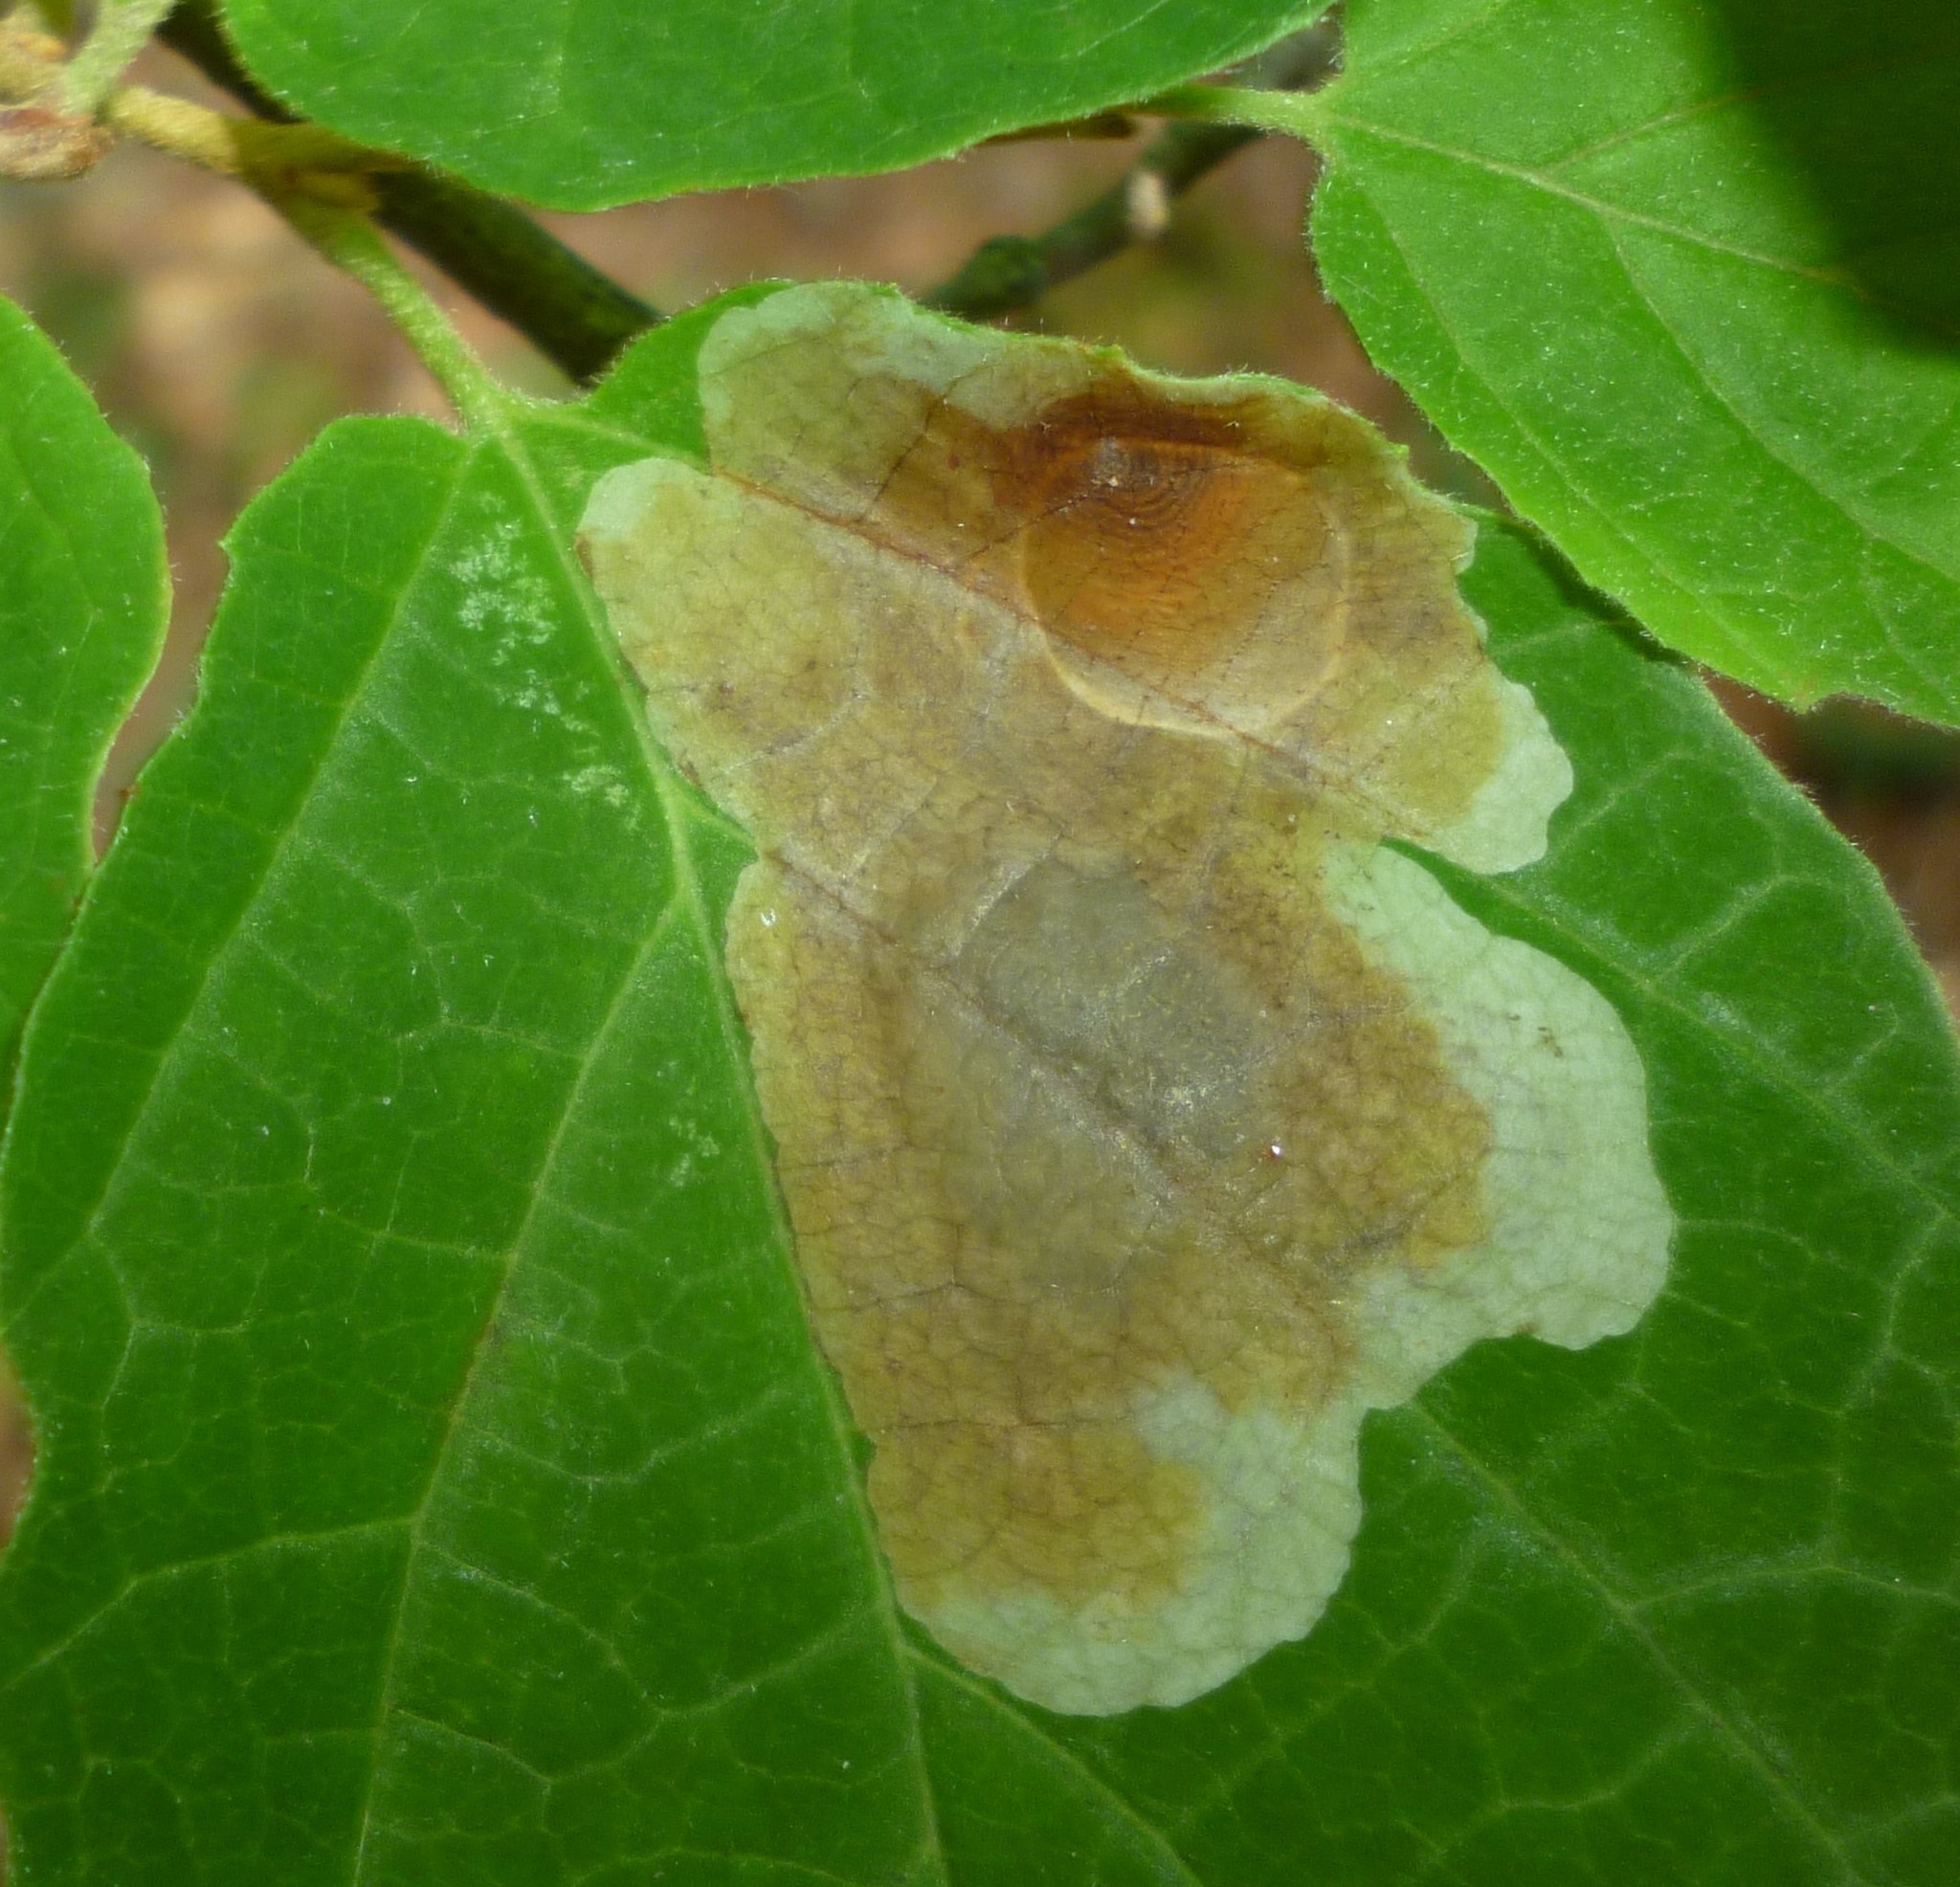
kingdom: Animalia
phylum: Arthropoda
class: Insecta
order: Lepidoptera
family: Gracillariidae
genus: Cameraria
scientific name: Cameraria hamameliella
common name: Witchhazel leafminer
